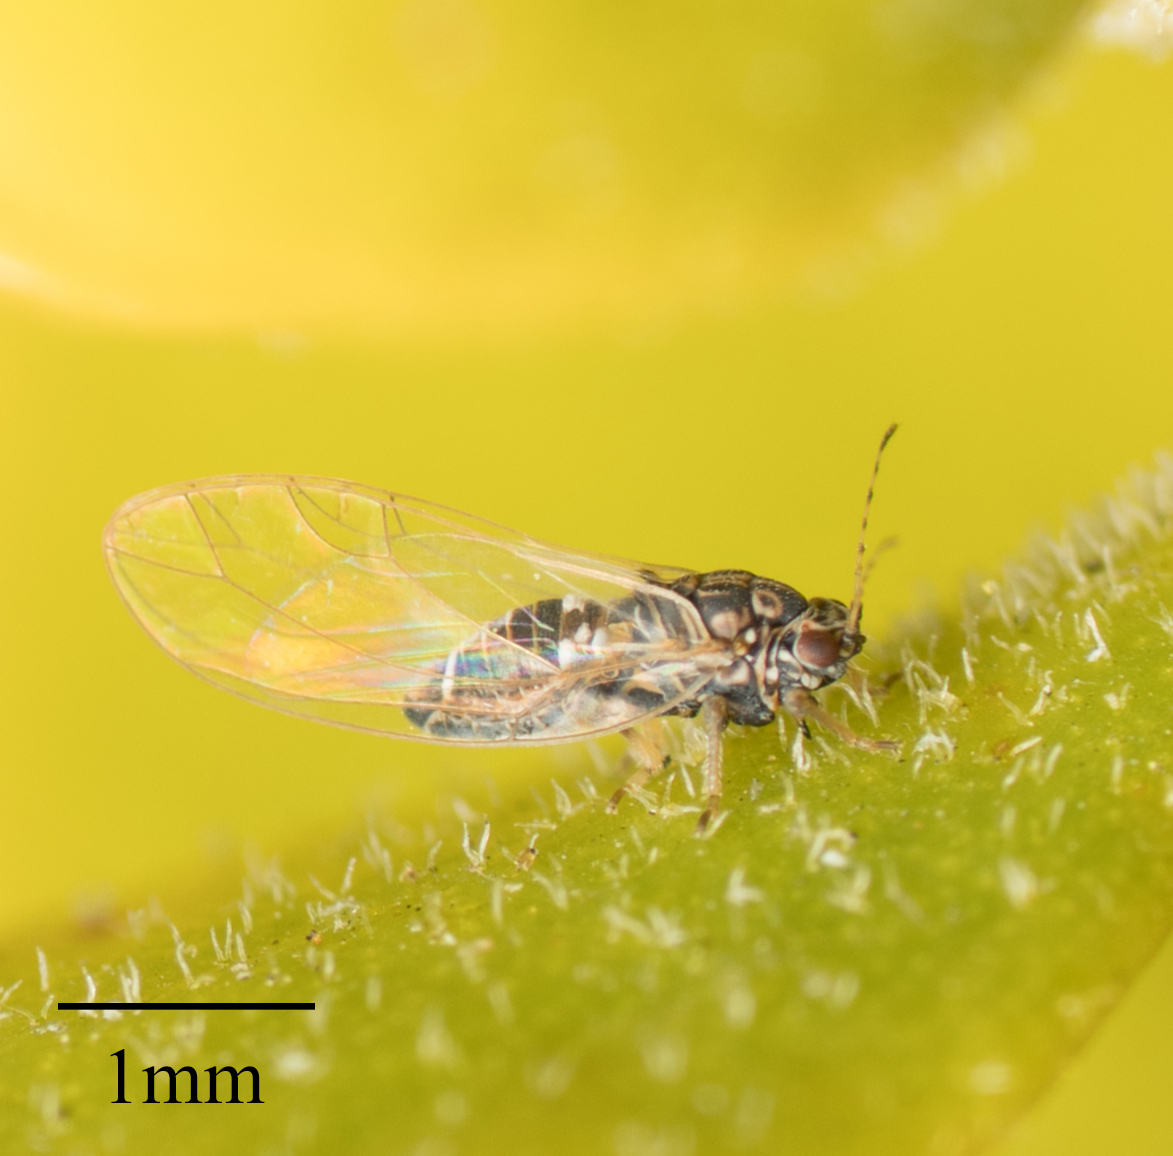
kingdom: Animalia
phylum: Arthropoda
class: Insecta
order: Hemiptera
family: Triozidae
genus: Bactericera
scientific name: Bactericera cockerelli
